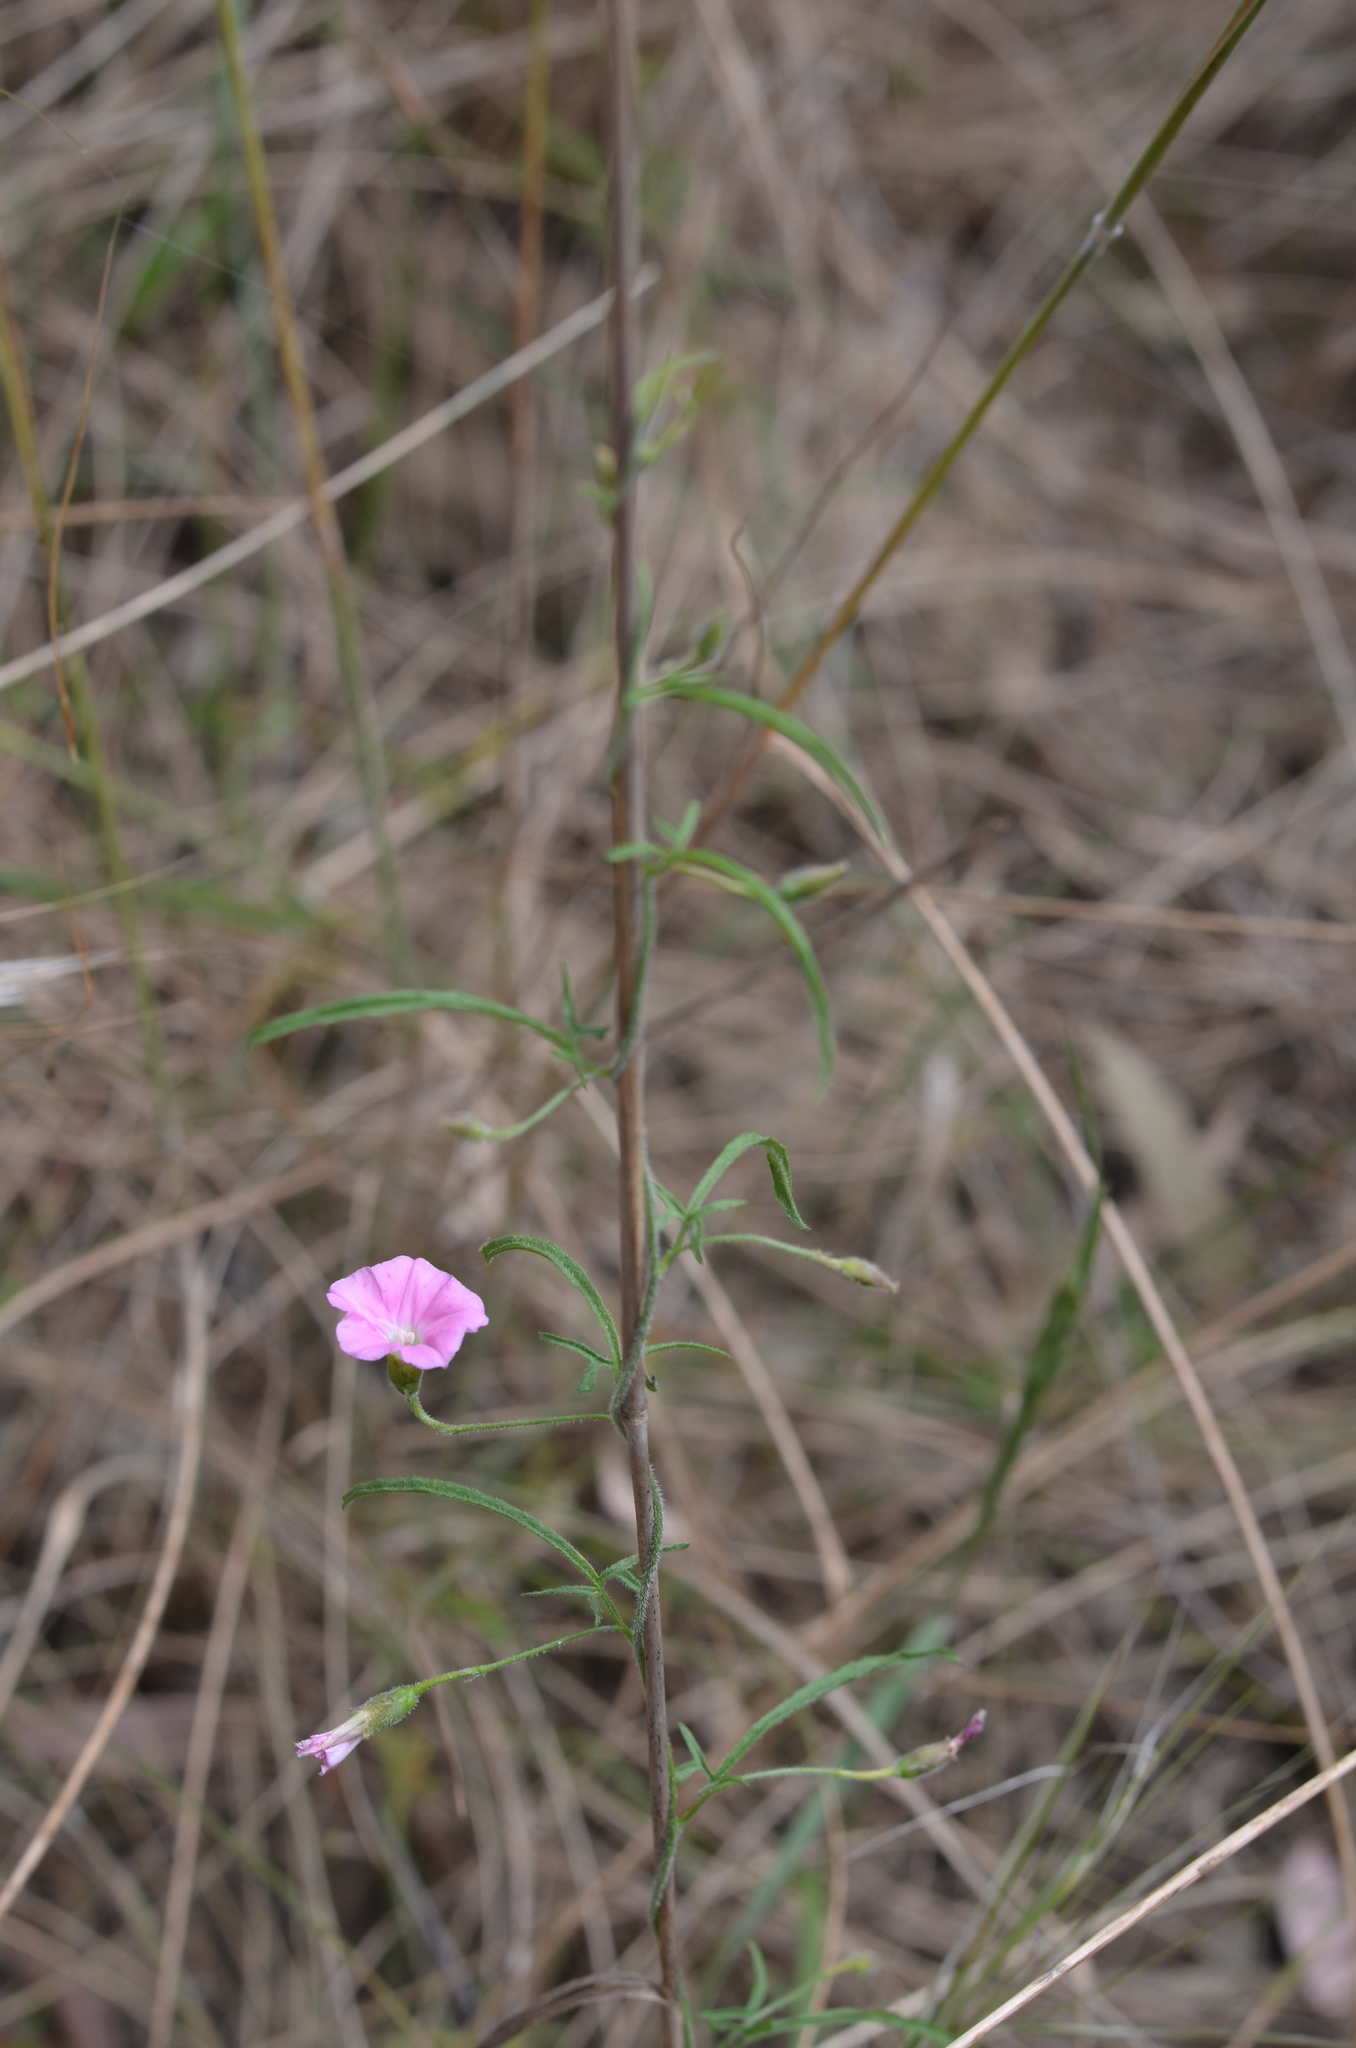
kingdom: Plantae
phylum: Tracheophyta
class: Magnoliopsida
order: Solanales
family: Convolvulaceae
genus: Convolvulus
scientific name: Convolvulus angustissimus
